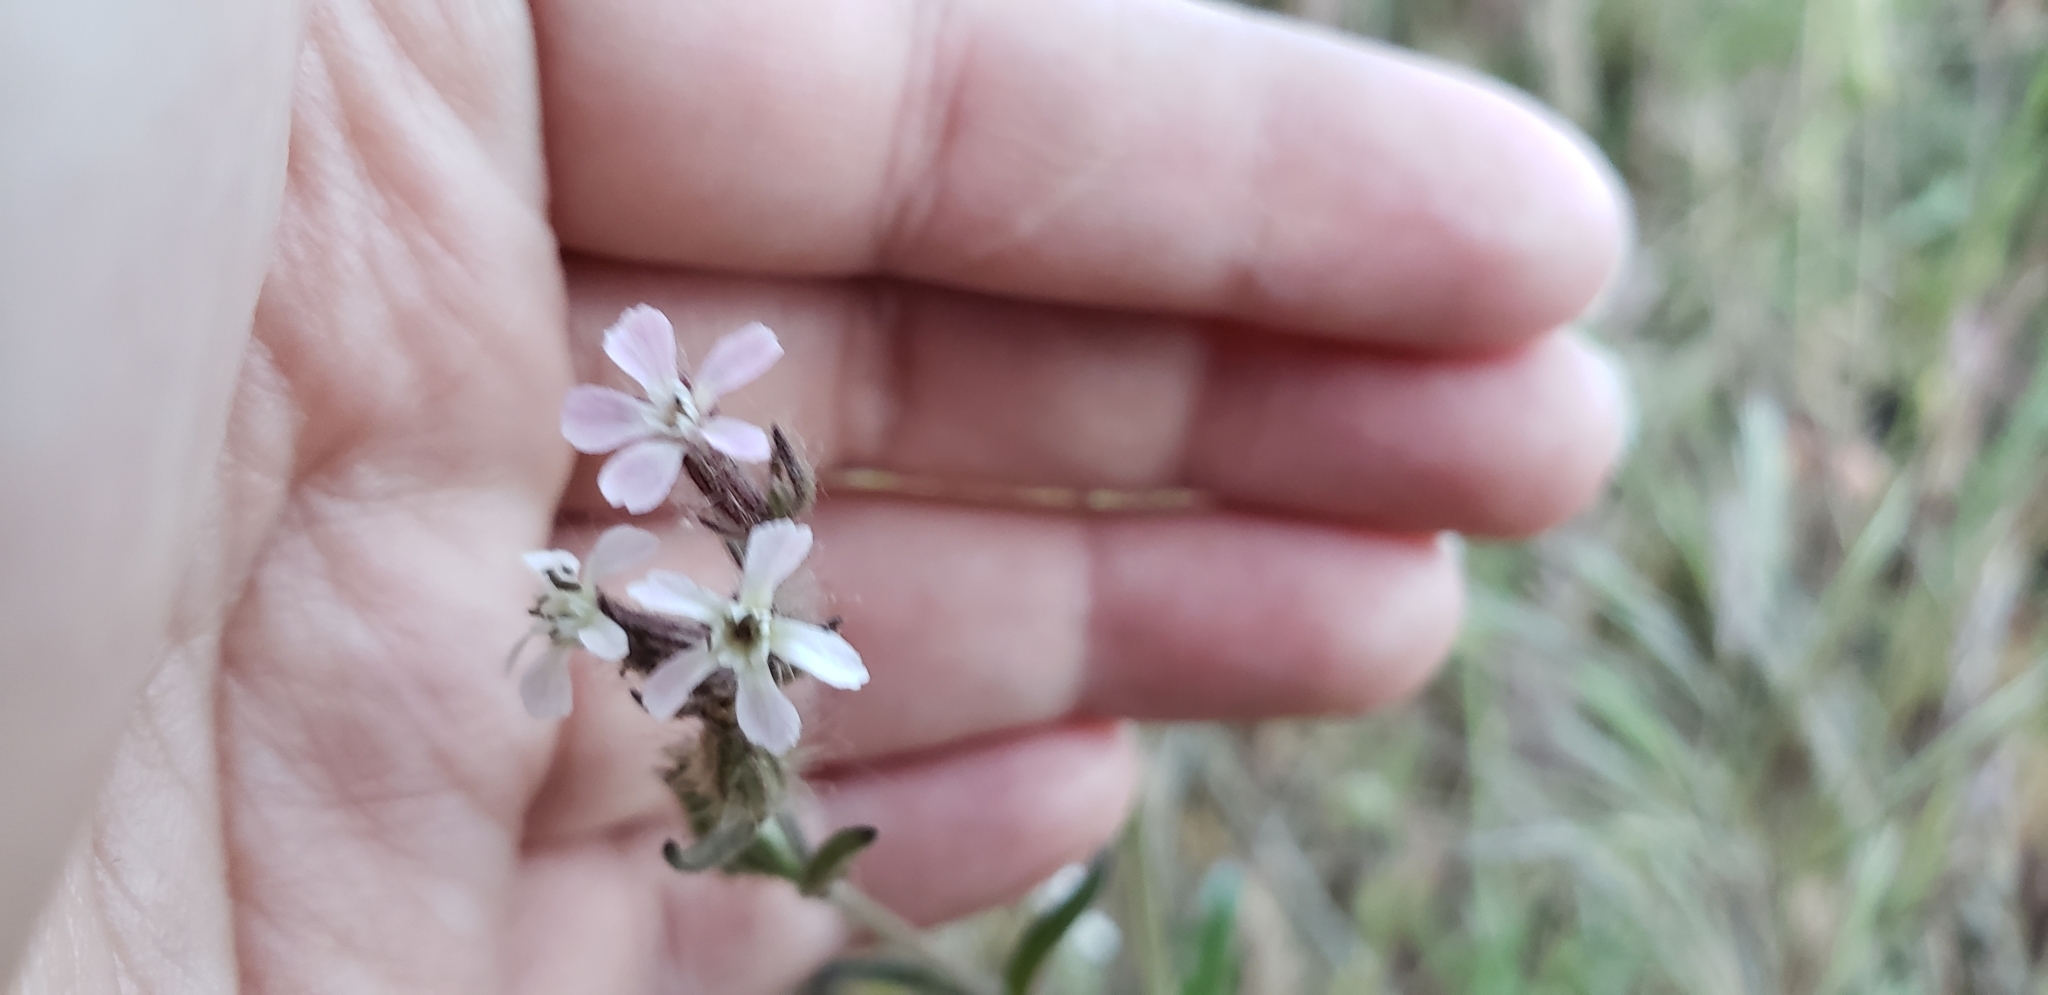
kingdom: Plantae
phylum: Tracheophyta
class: Magnoliopsida
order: Caryophyllales
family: Caryophyllaceae
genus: Silene
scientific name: Silene gallica
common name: Small-flowered catchfly
